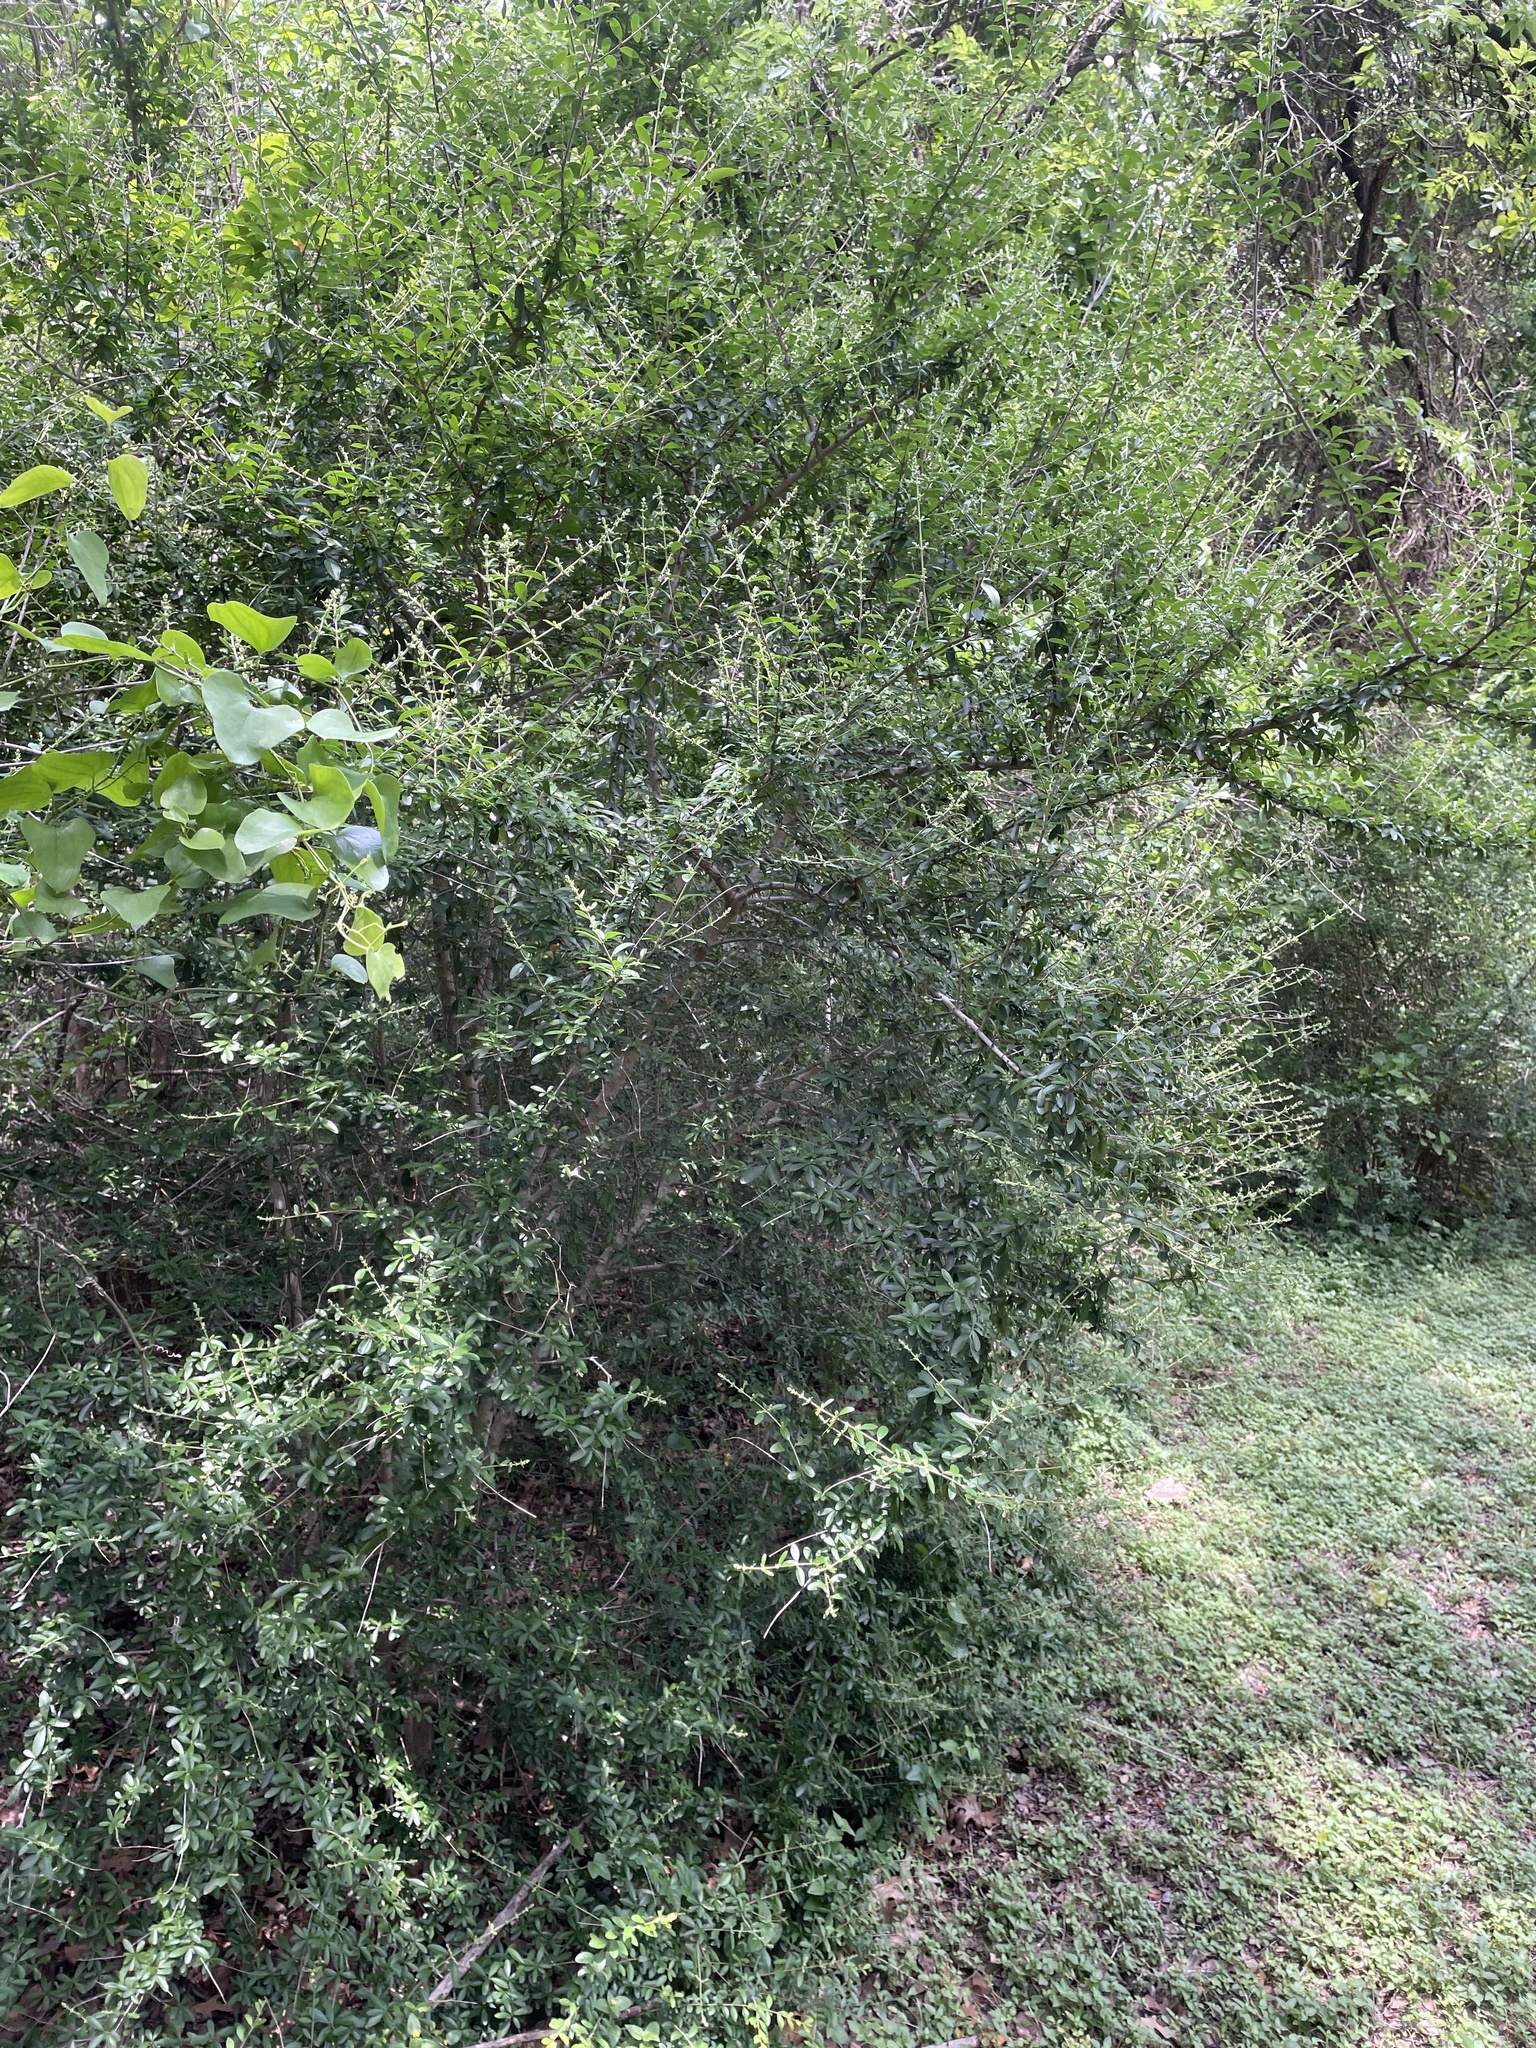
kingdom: Plantae
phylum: Tracheophyta
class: Magnoliopsida
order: Lamiales
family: Oleaceae
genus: Ligustrum
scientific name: Ligustrum quihoui
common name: Waxyleaf privet
